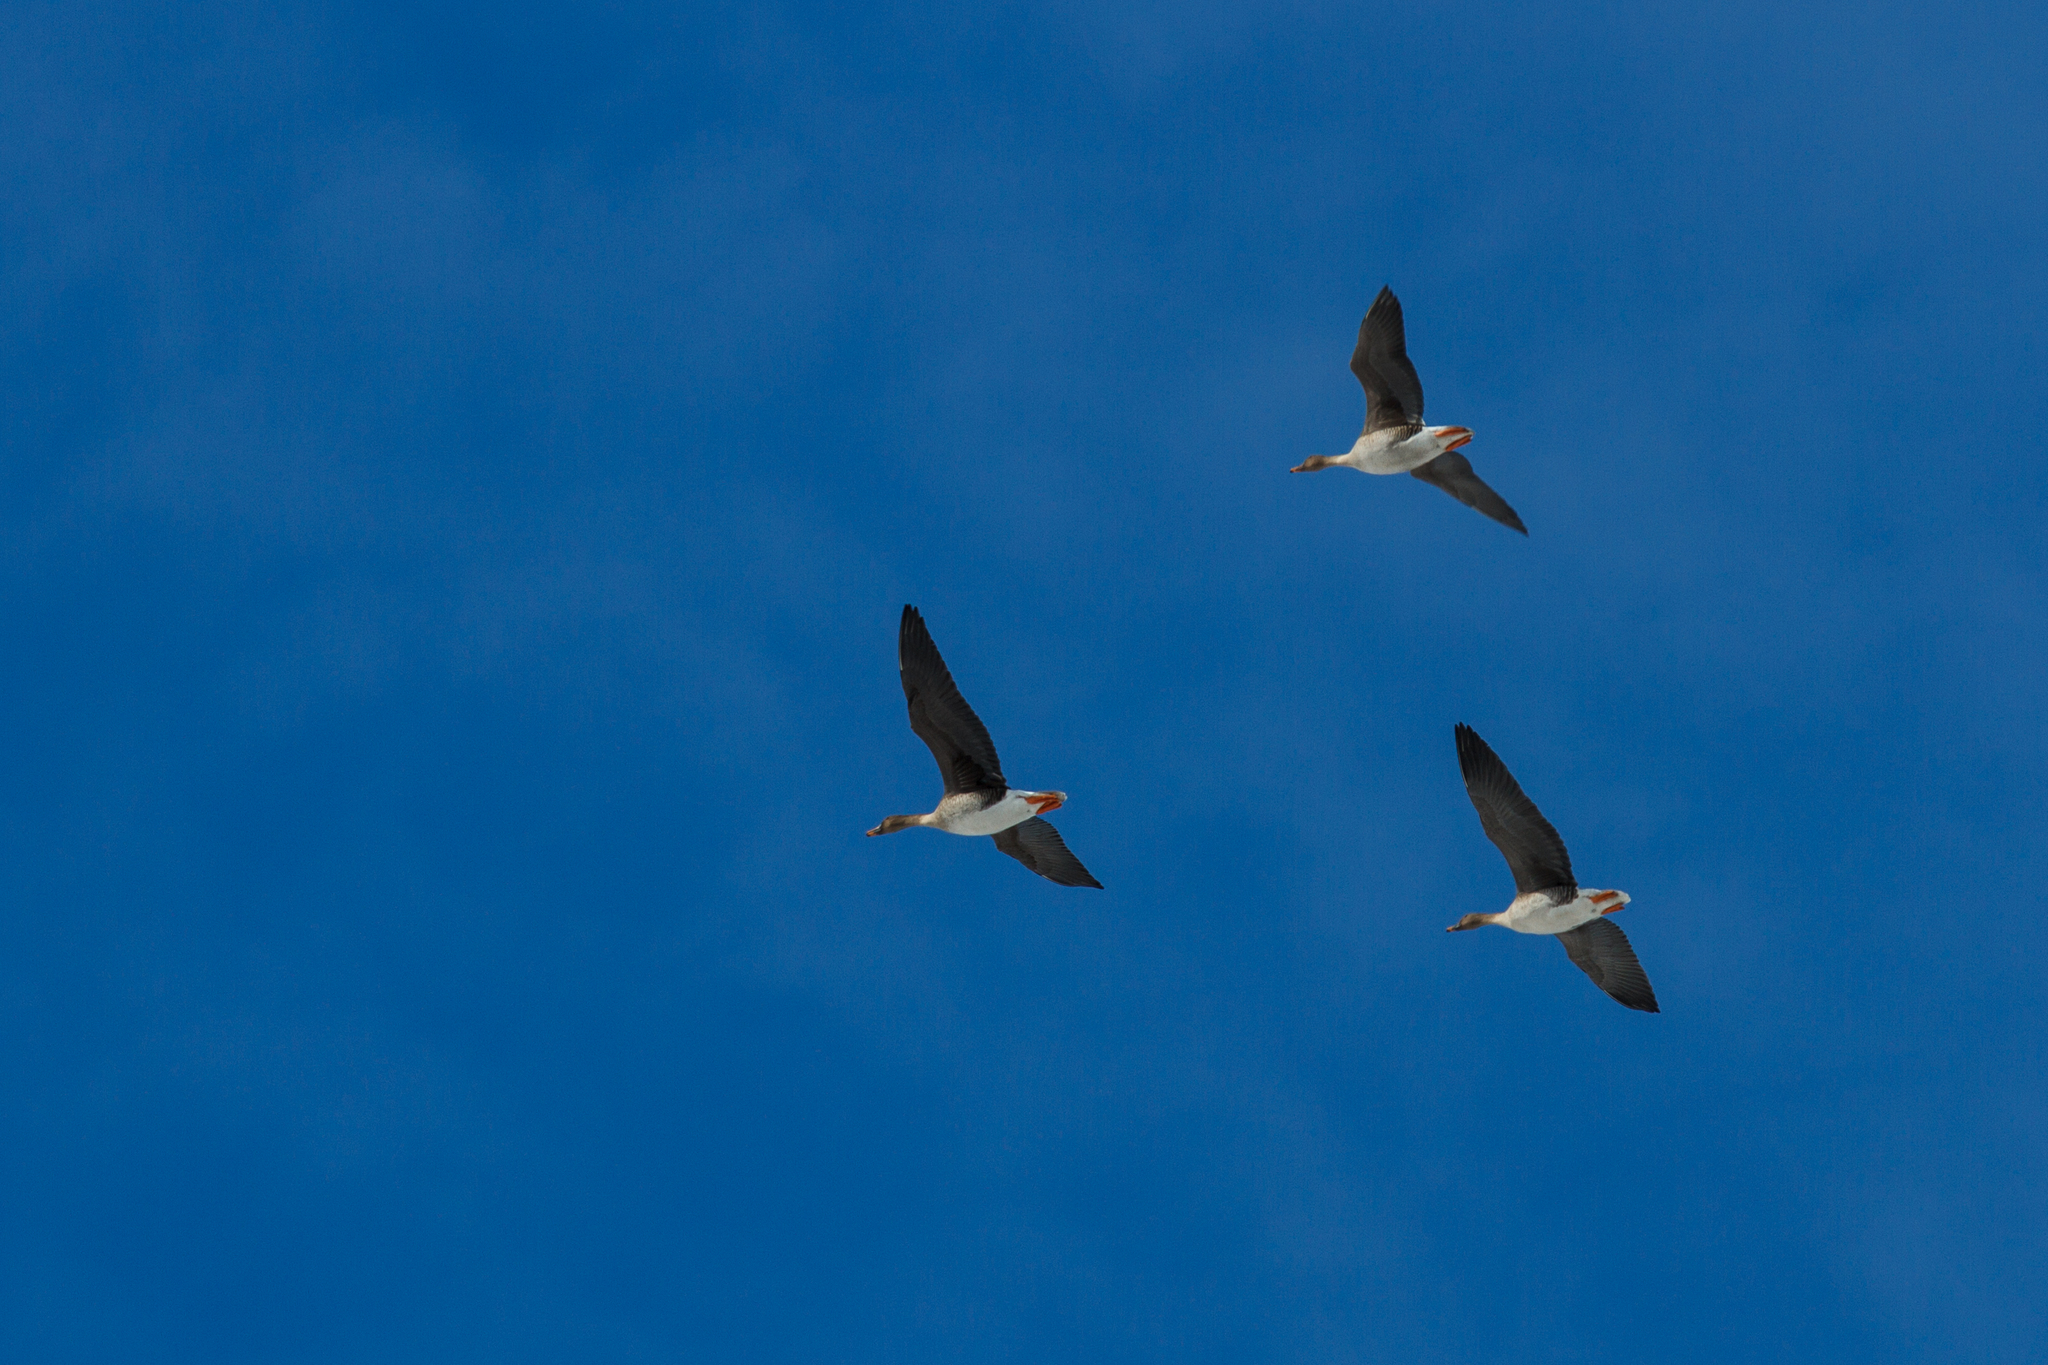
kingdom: Animalia
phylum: Chordata
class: Aves
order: Anseriformes
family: Anatidae
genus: Anser
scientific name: Anser fabalis
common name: Bean goose
